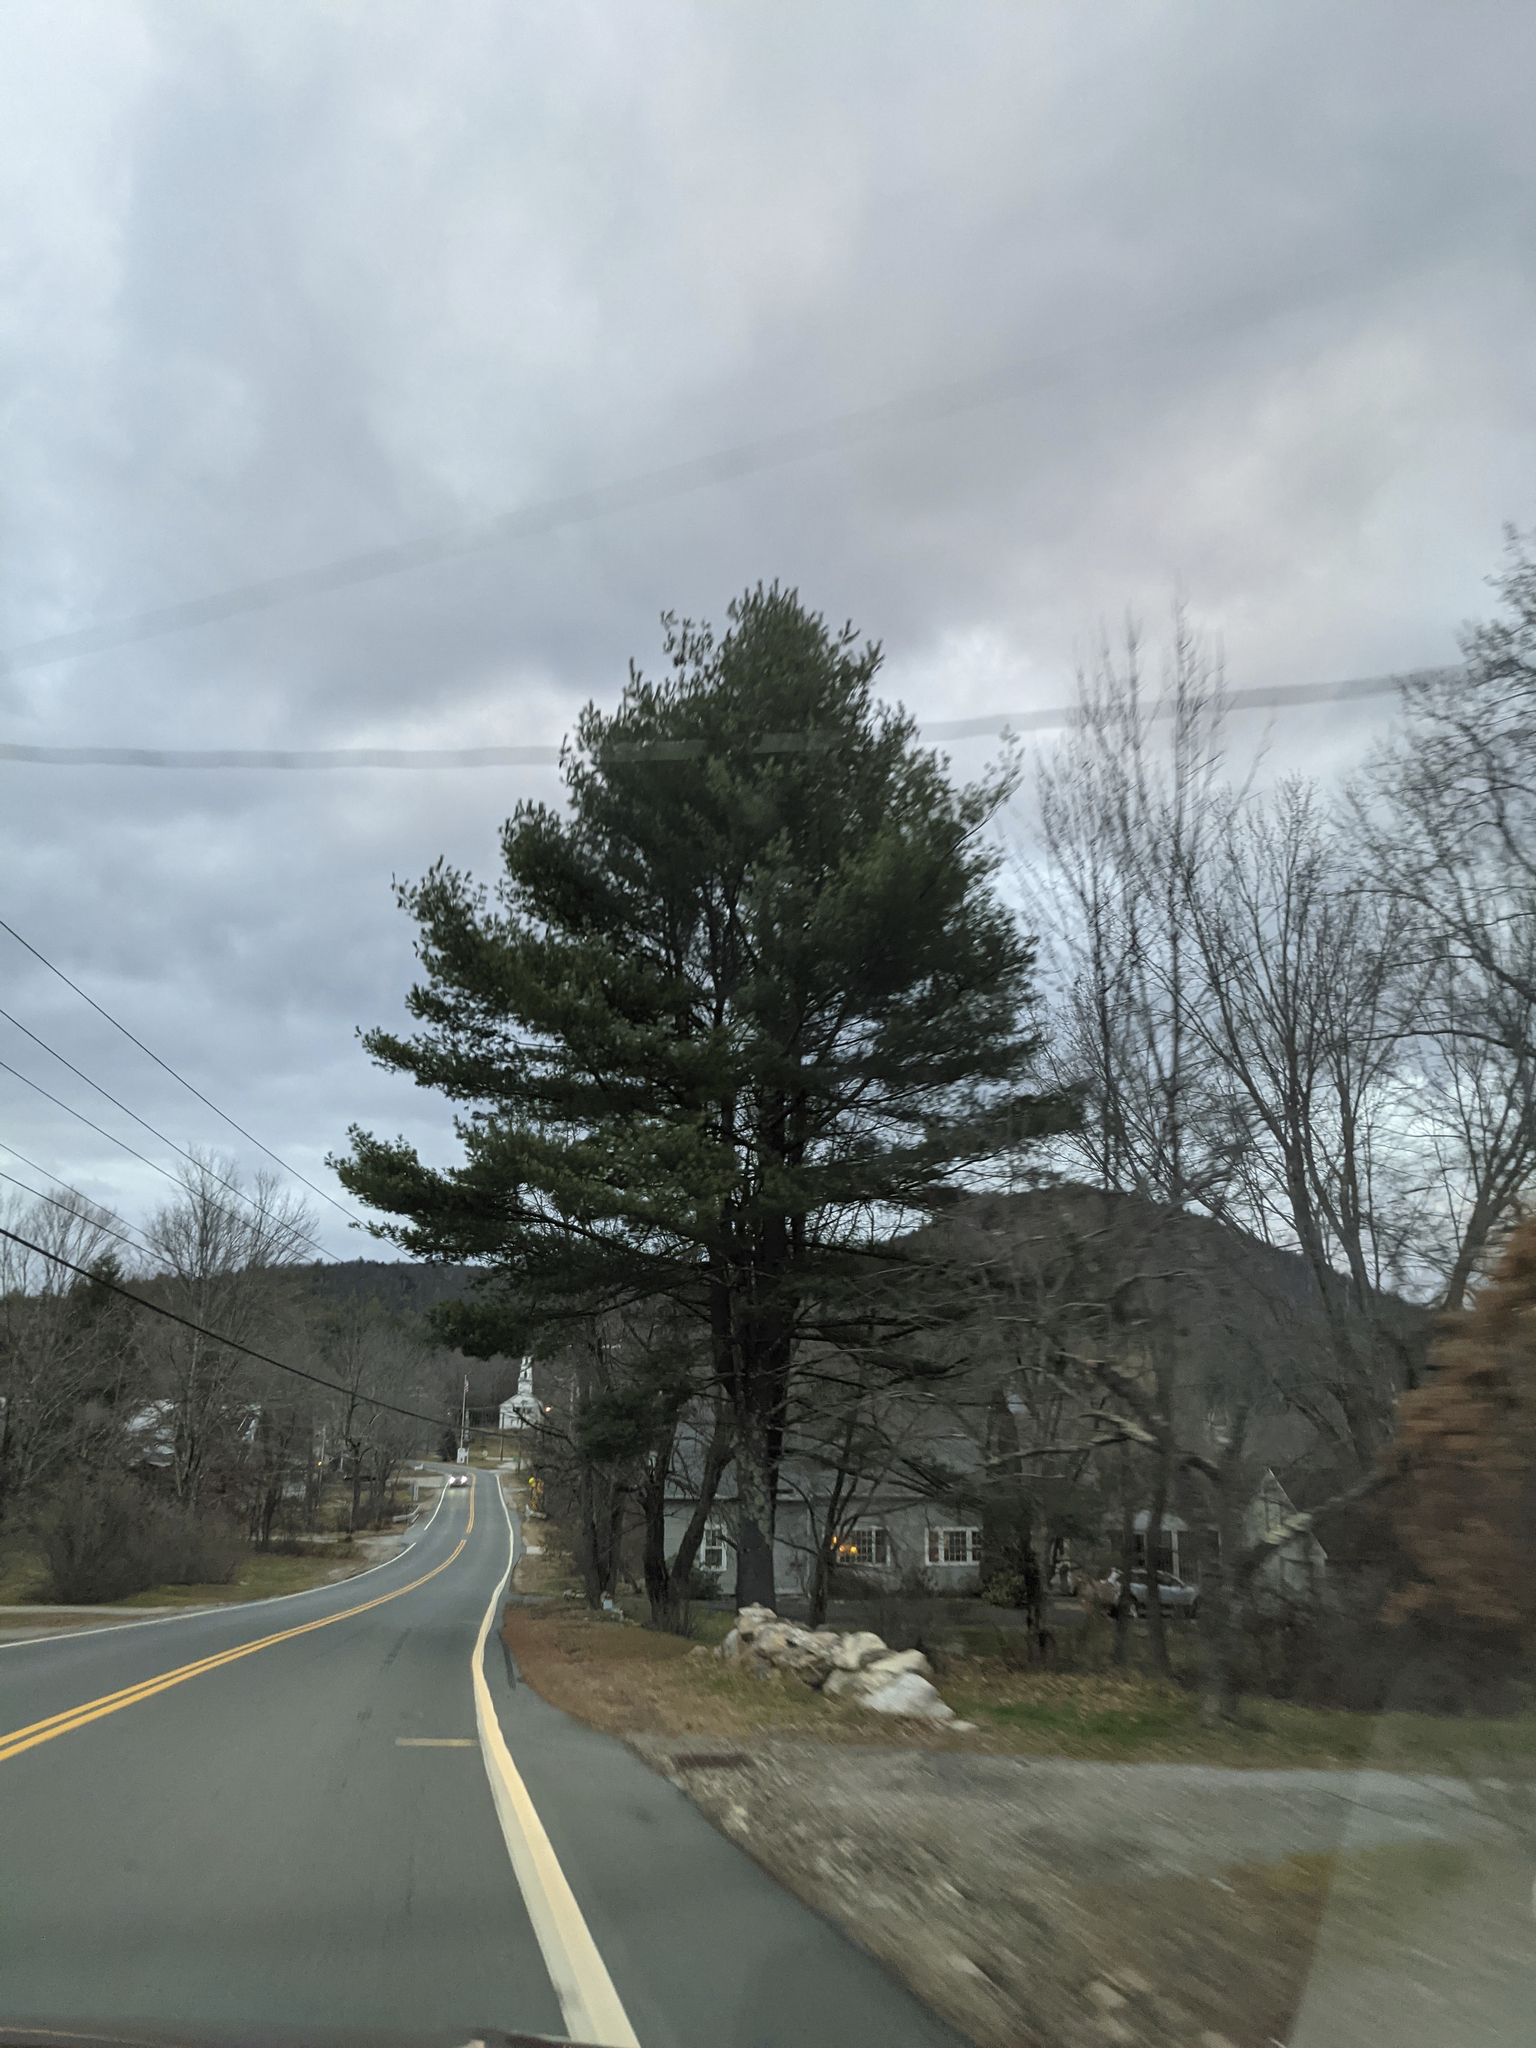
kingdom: Plantae
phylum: Tracheophyta
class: Pinopsida
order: Pinales
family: Pinaceae
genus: Pinus
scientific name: Pinus strobus
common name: Weymouth pine
